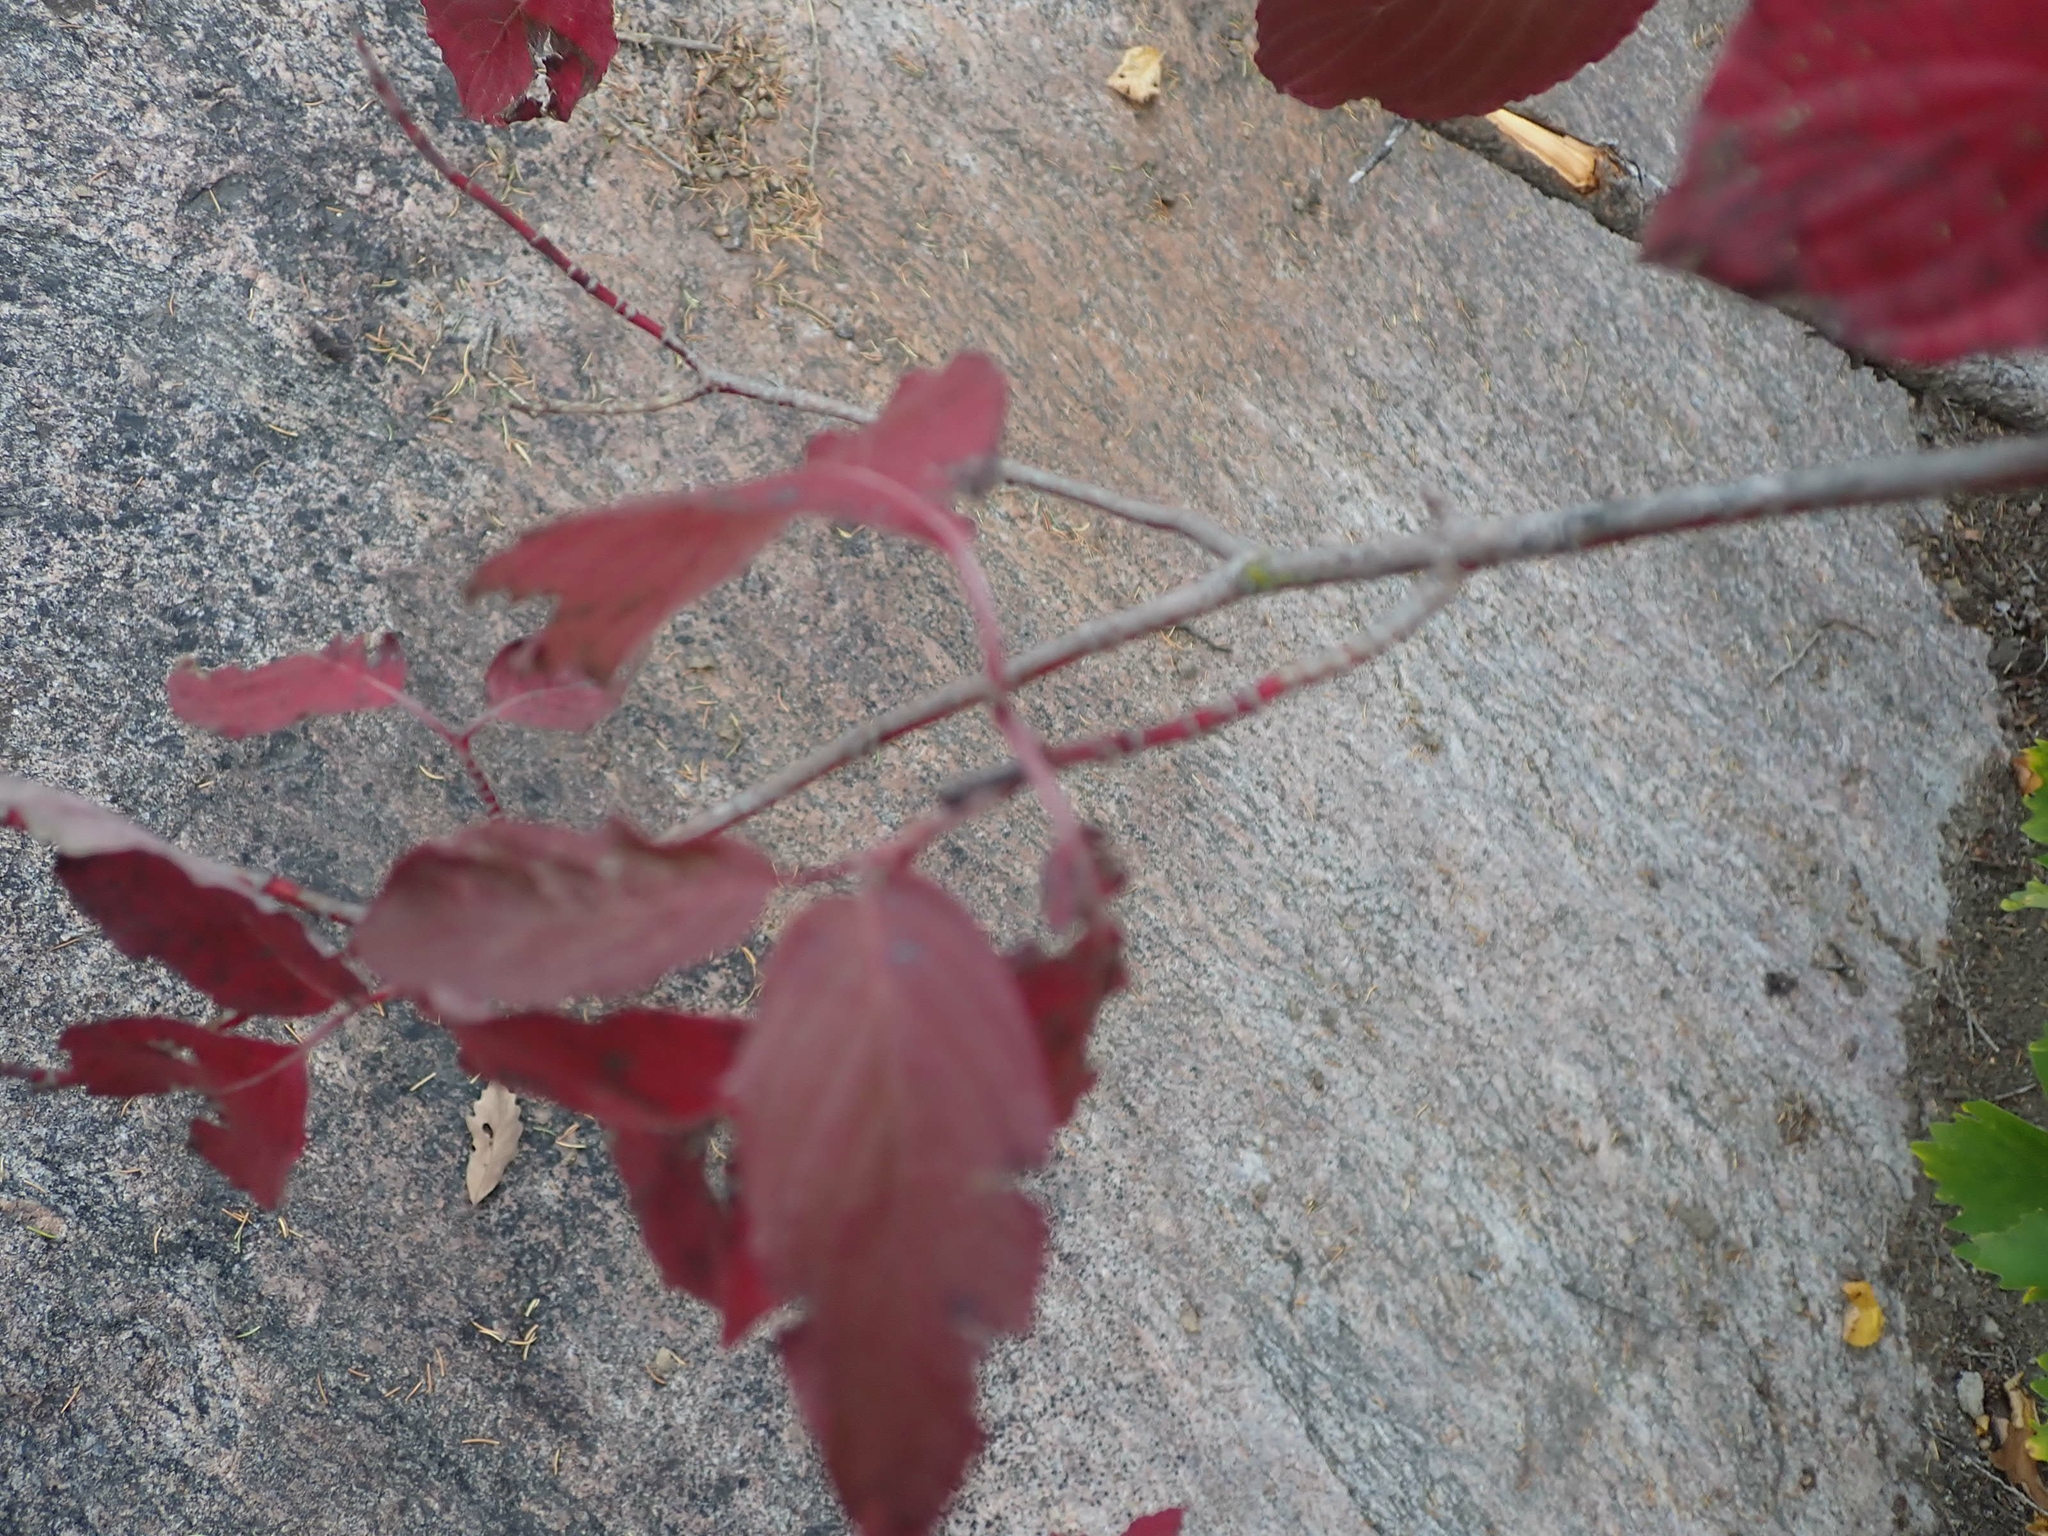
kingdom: Plantae
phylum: Tracheophyta
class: Magnoliopsida
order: Cornales
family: Cornaceae
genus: Cornus
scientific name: Cornus racemosa
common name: Panicled dogwood
